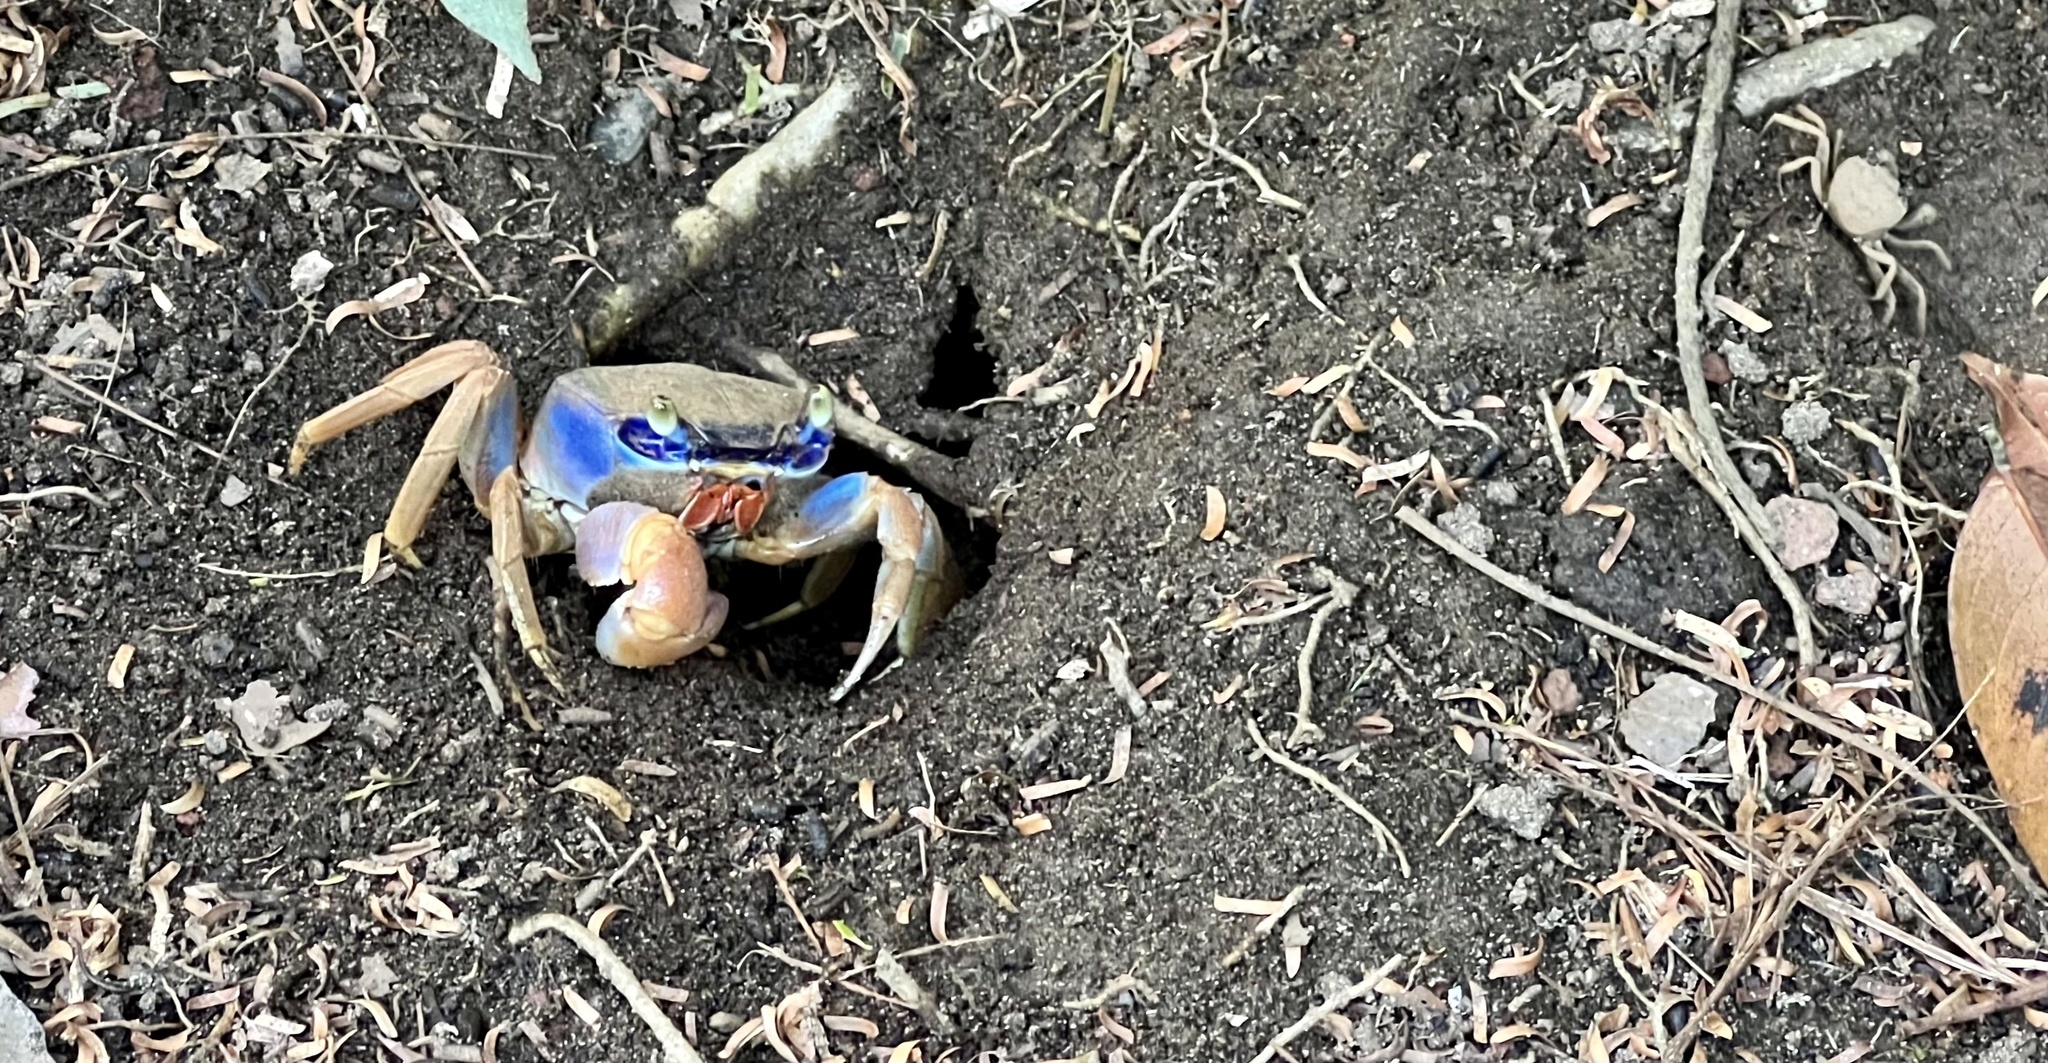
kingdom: Animalia
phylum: Arthropoda
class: Malacostraca
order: Decapoda
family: Gecarcinidae
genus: Cardisoma
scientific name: Cardisoma guanhumi
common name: Great land crab
